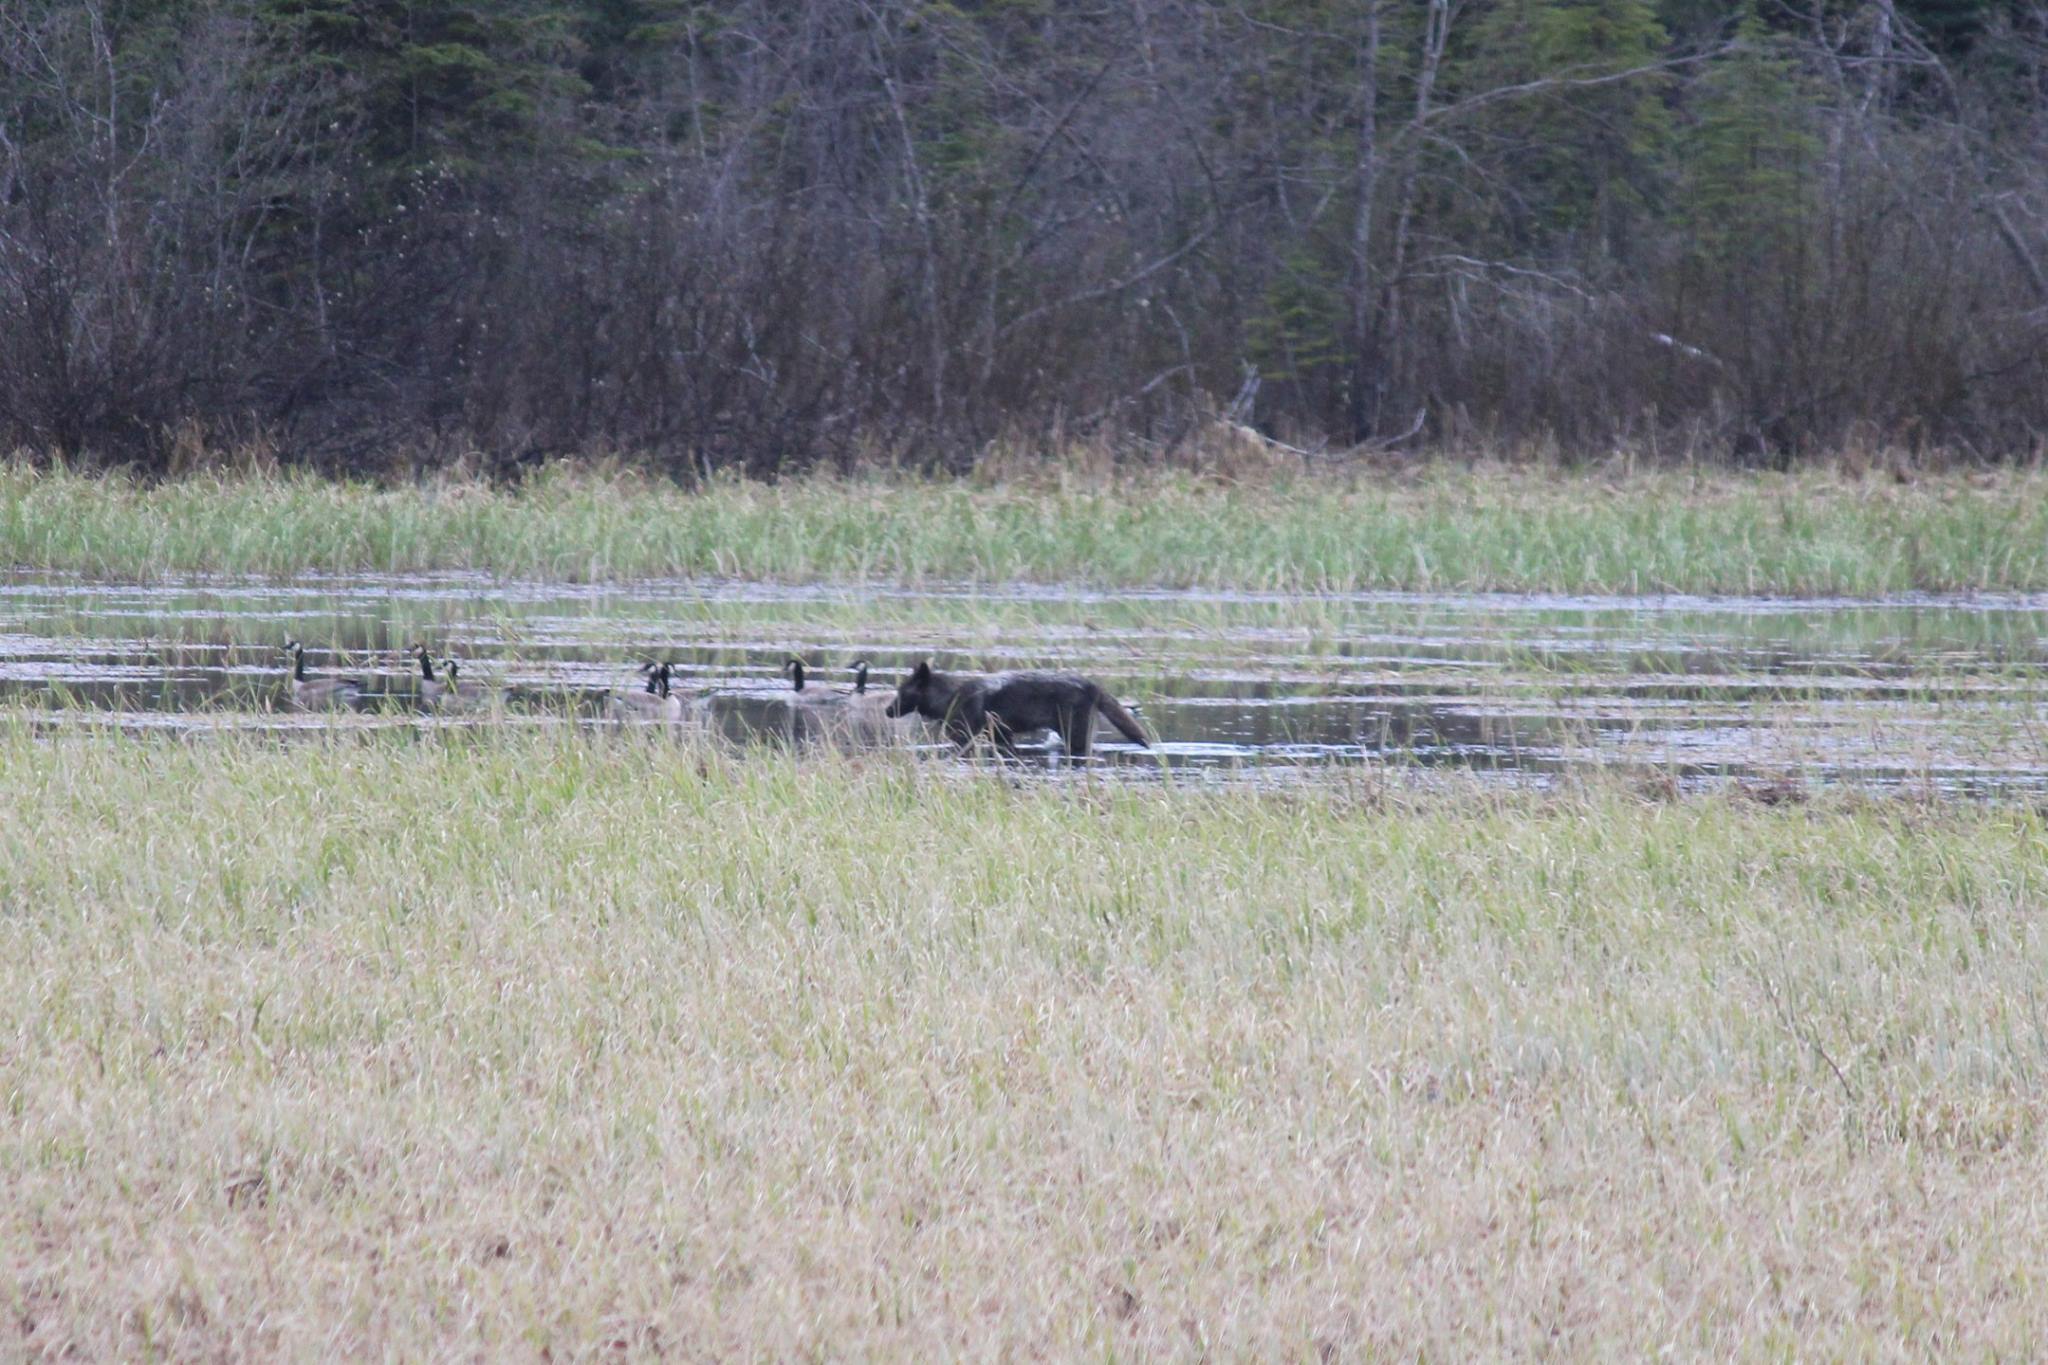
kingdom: Animalia
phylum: Chordata
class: Mammalia
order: Carnivora
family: Canidae
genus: Canis
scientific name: Canis lupus
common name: Gray wolf
